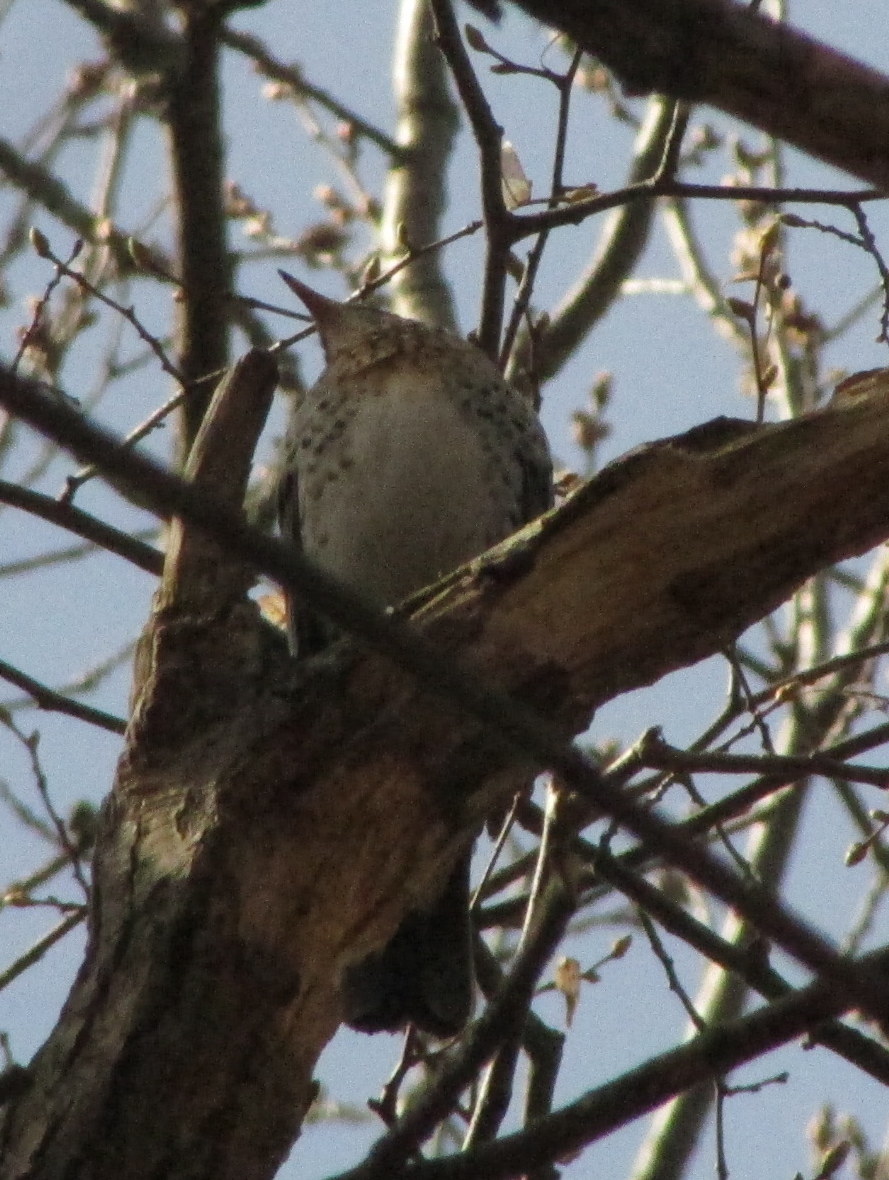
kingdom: Animalia
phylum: Chordata
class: Aves
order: Passeriformes
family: Turdidae
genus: Turdus
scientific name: Turdus philomelos
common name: Song thrush
